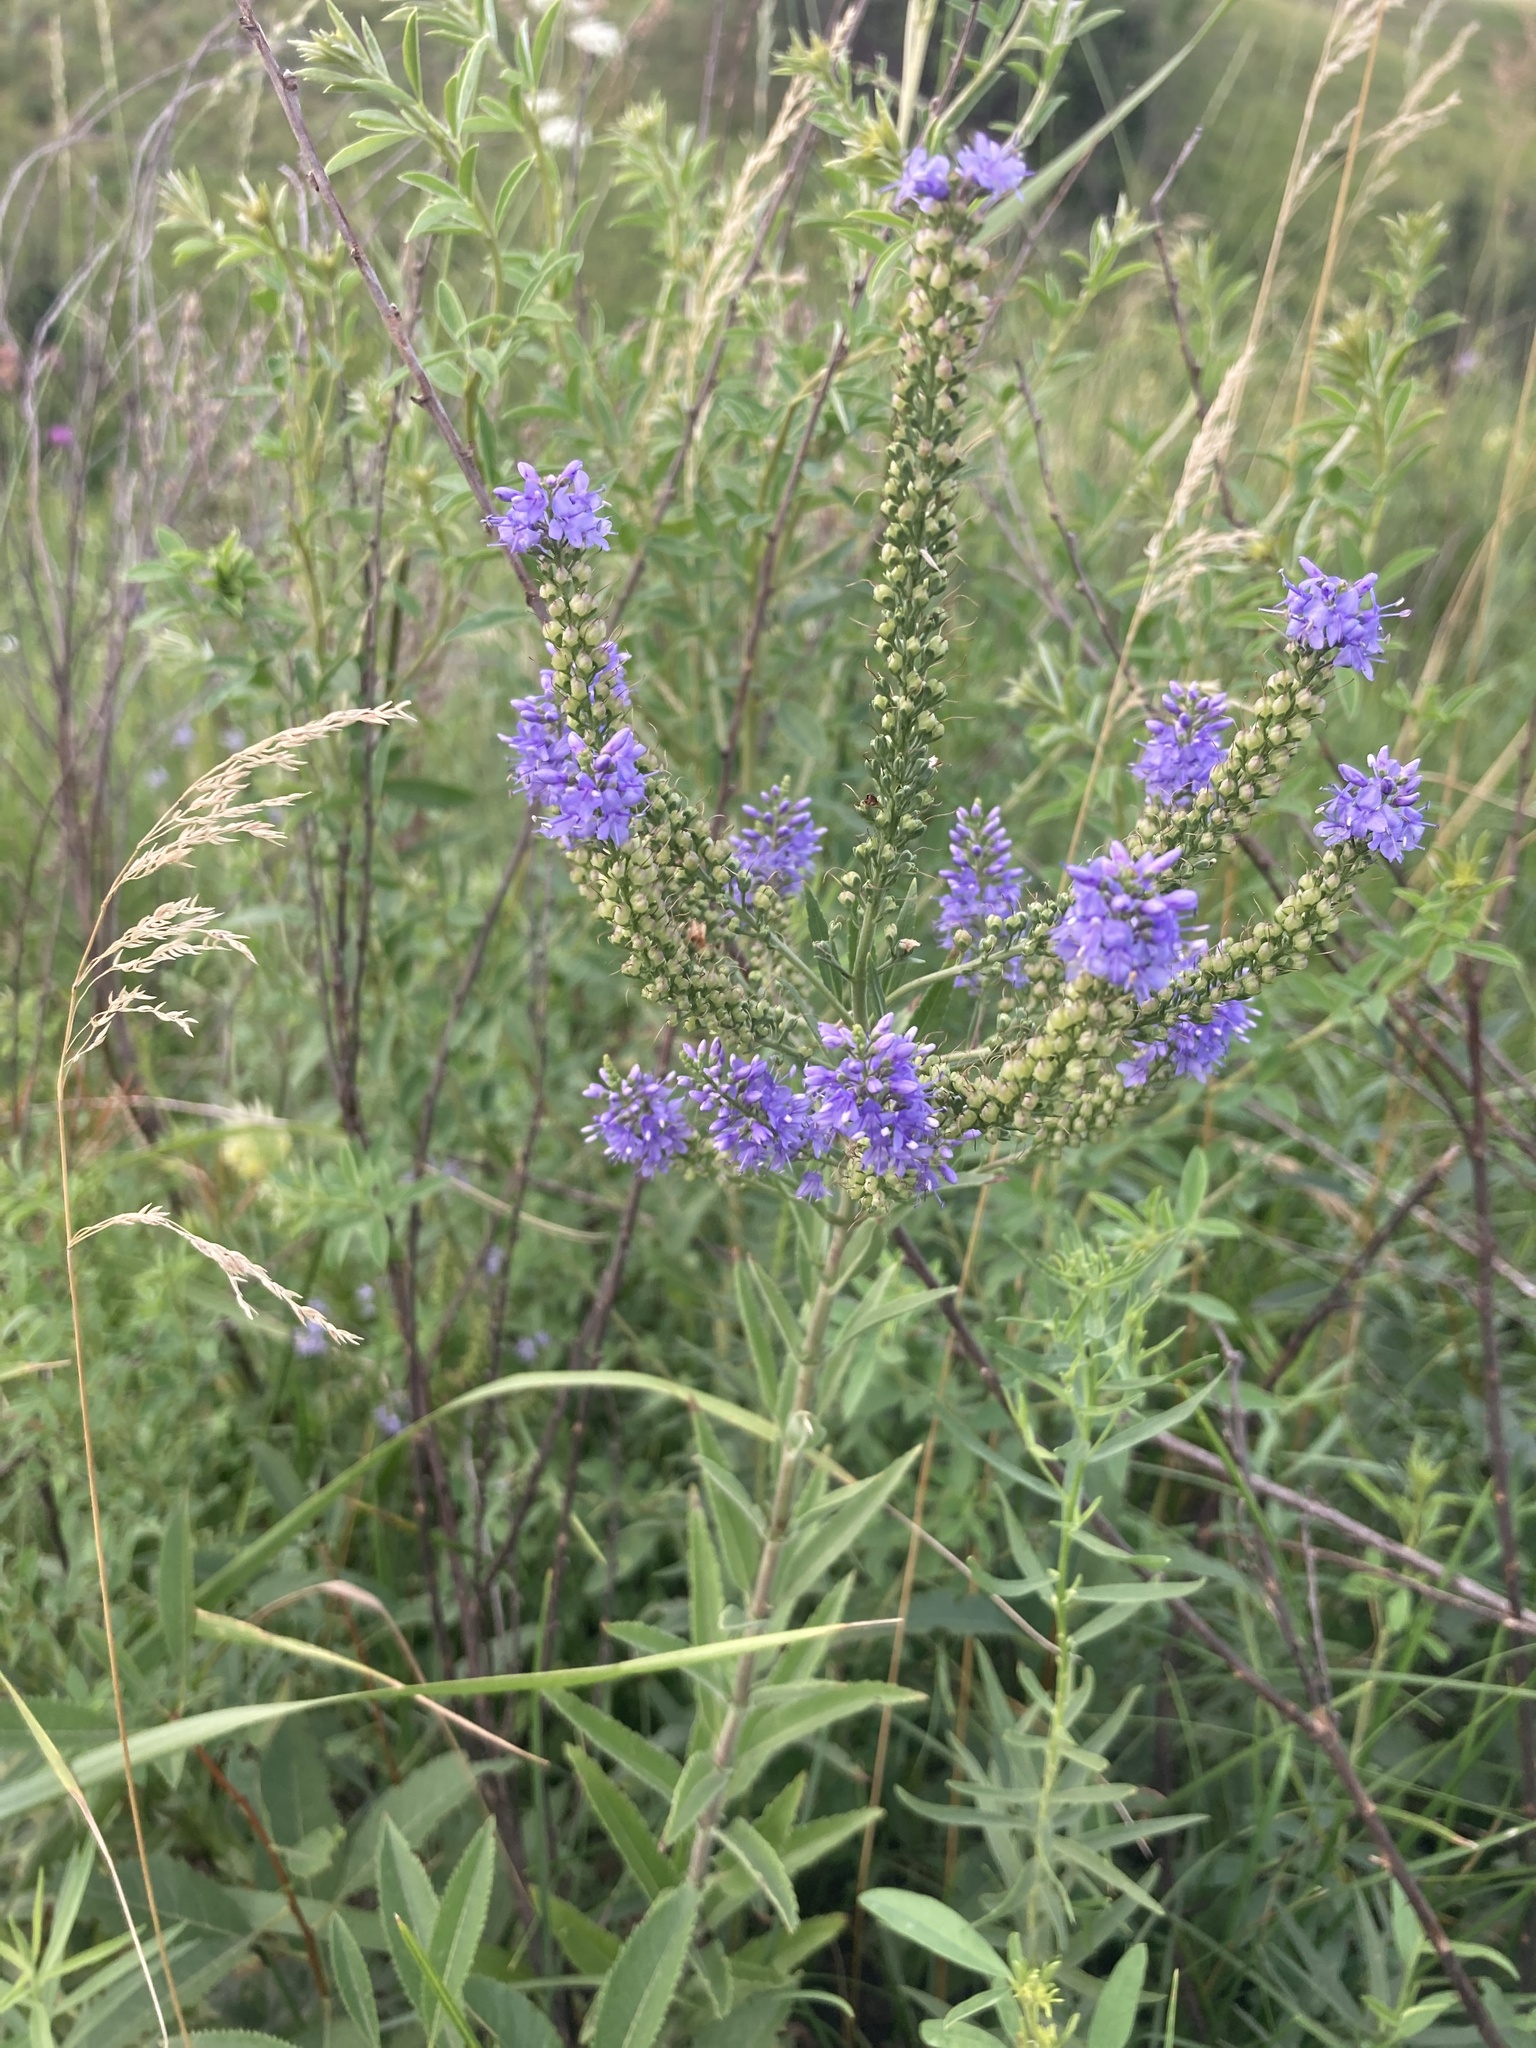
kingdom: Plantae
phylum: Tracheophyta
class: Magnoliopsida
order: Lamiales
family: Plantaginaceae
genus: Veronica
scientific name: Veronica spuria
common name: Bastard speedwell
